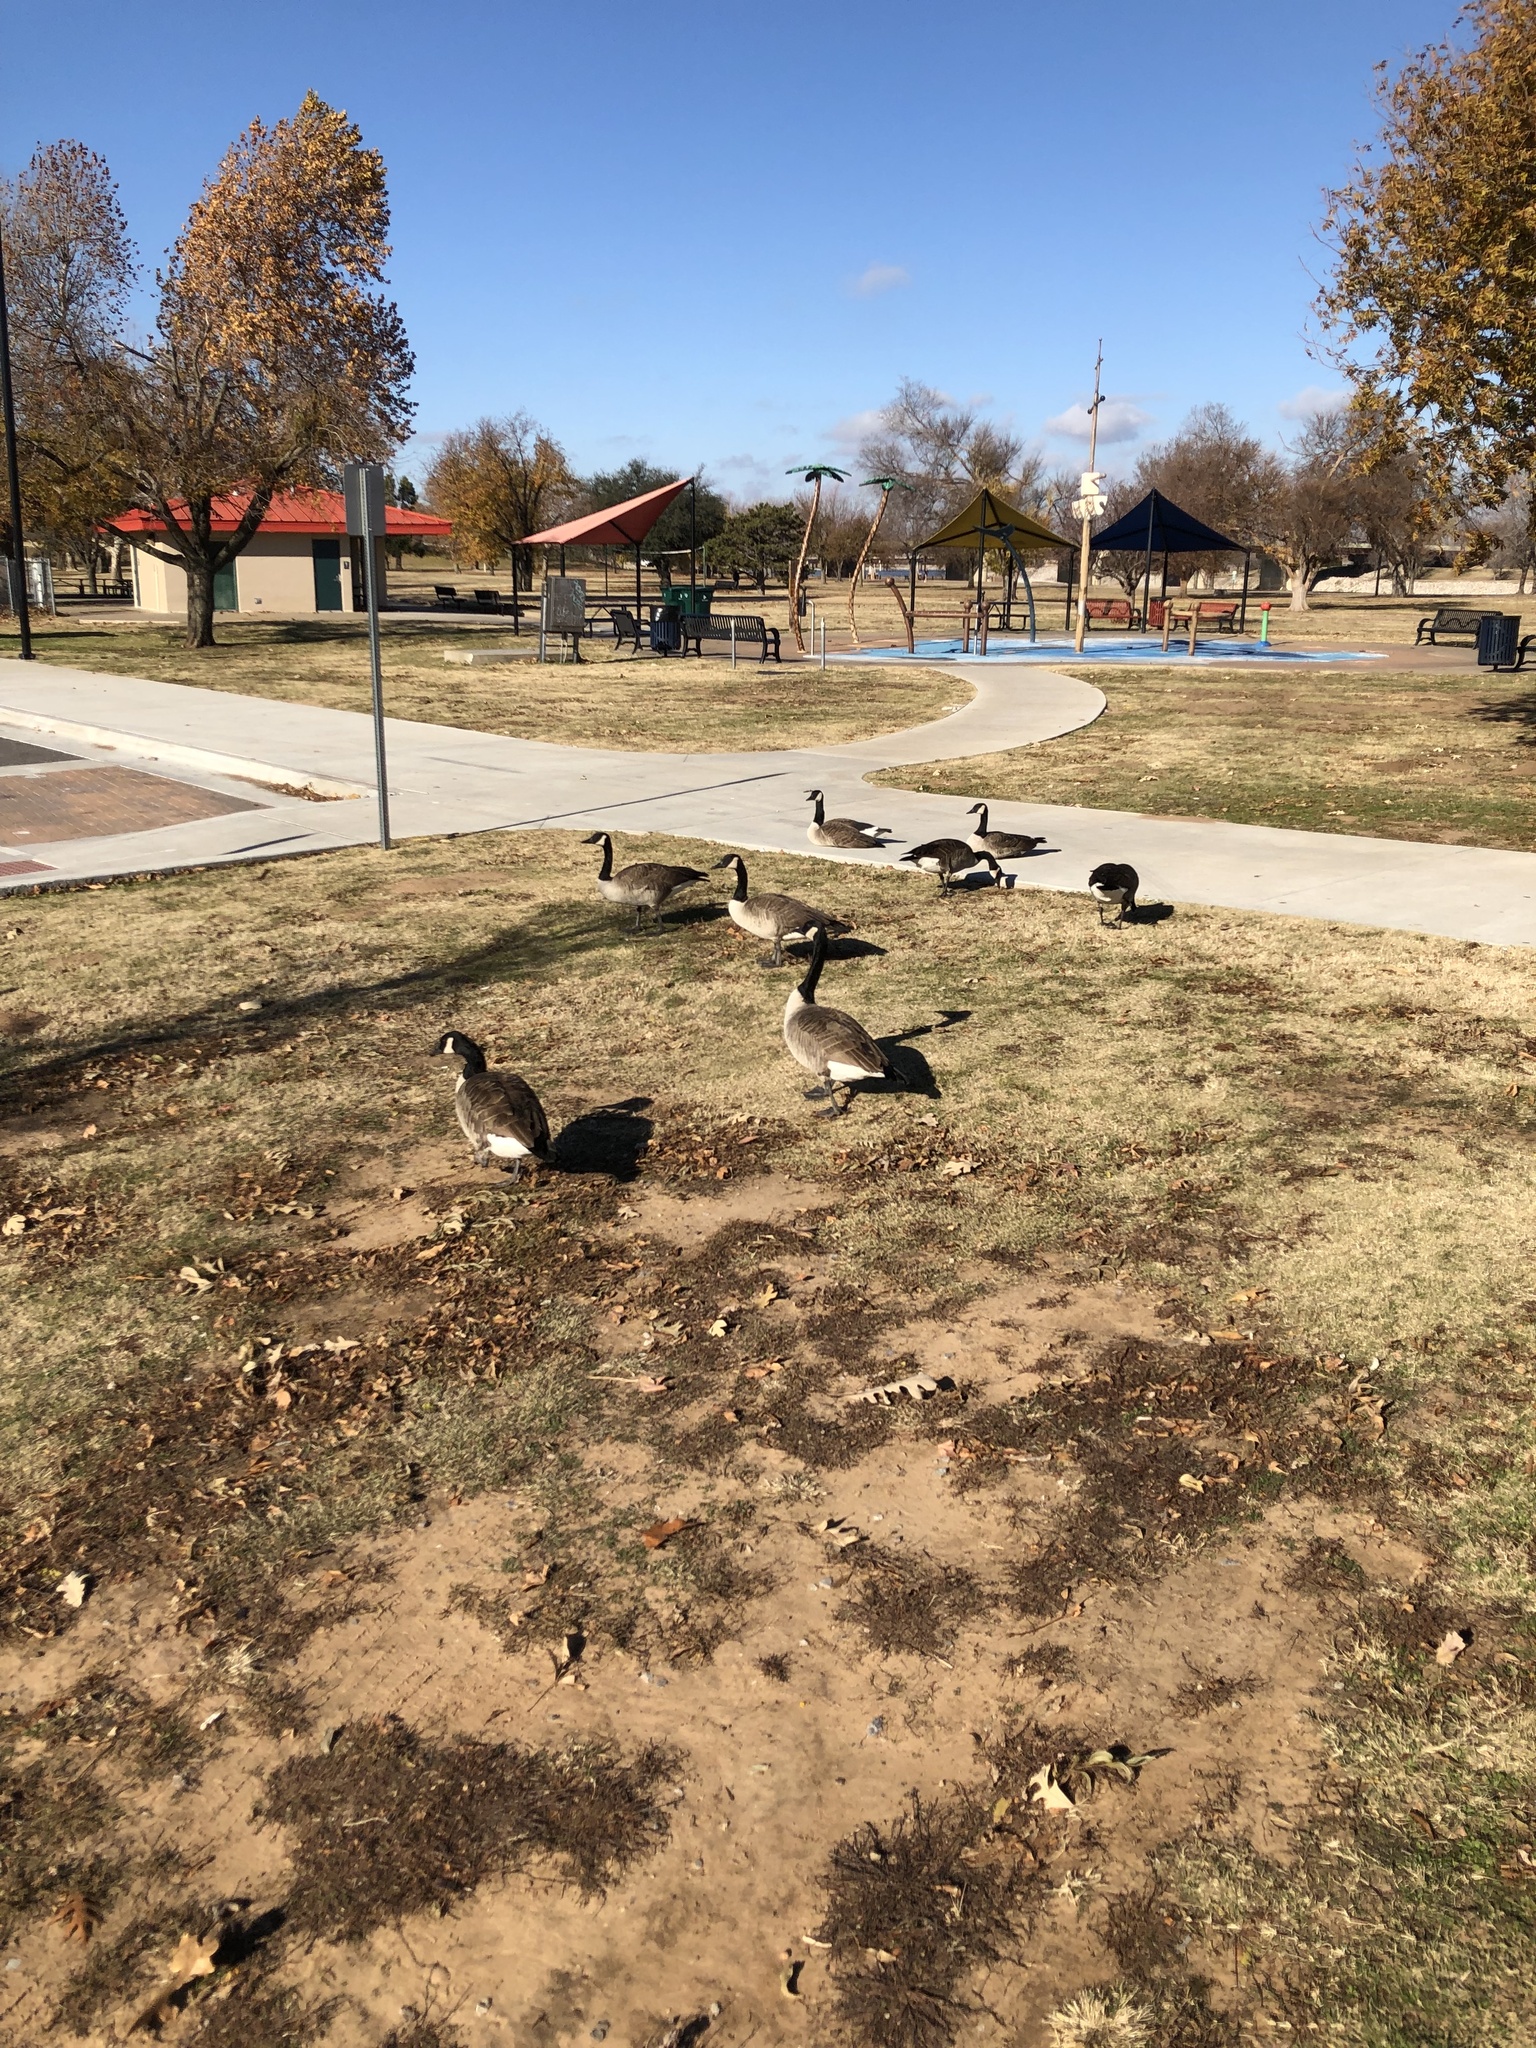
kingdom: Animalia
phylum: Chordata
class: Aves
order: Anseriformes
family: Anatidae
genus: Branta
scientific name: Branta canadensis
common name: Canada goose
